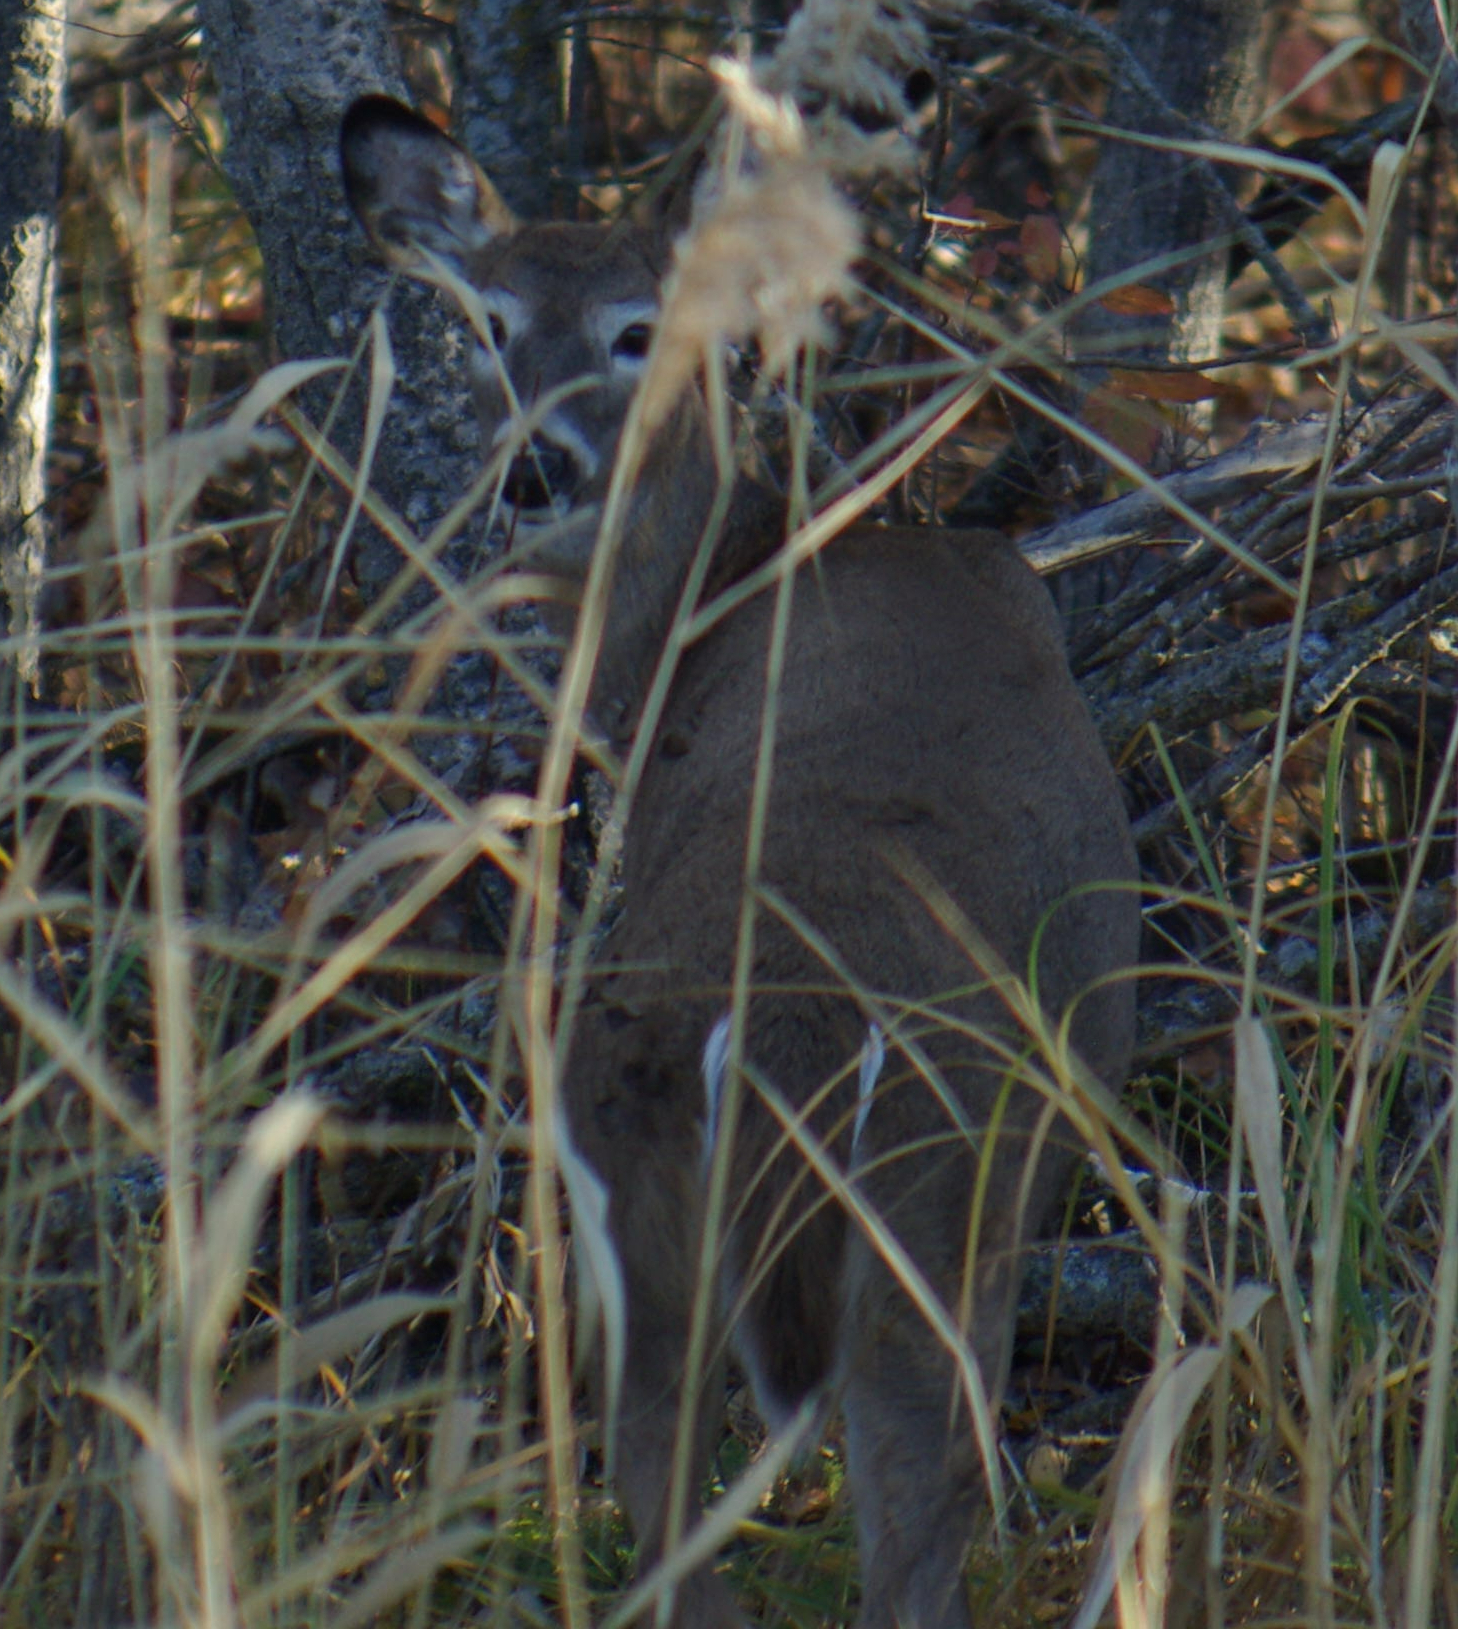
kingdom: Animalia
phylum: Chordata
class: Mammalia
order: Artiodactyla
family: Cervidae
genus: Odocoileus
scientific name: Odocoileus virginianus
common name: White-tailed deer
